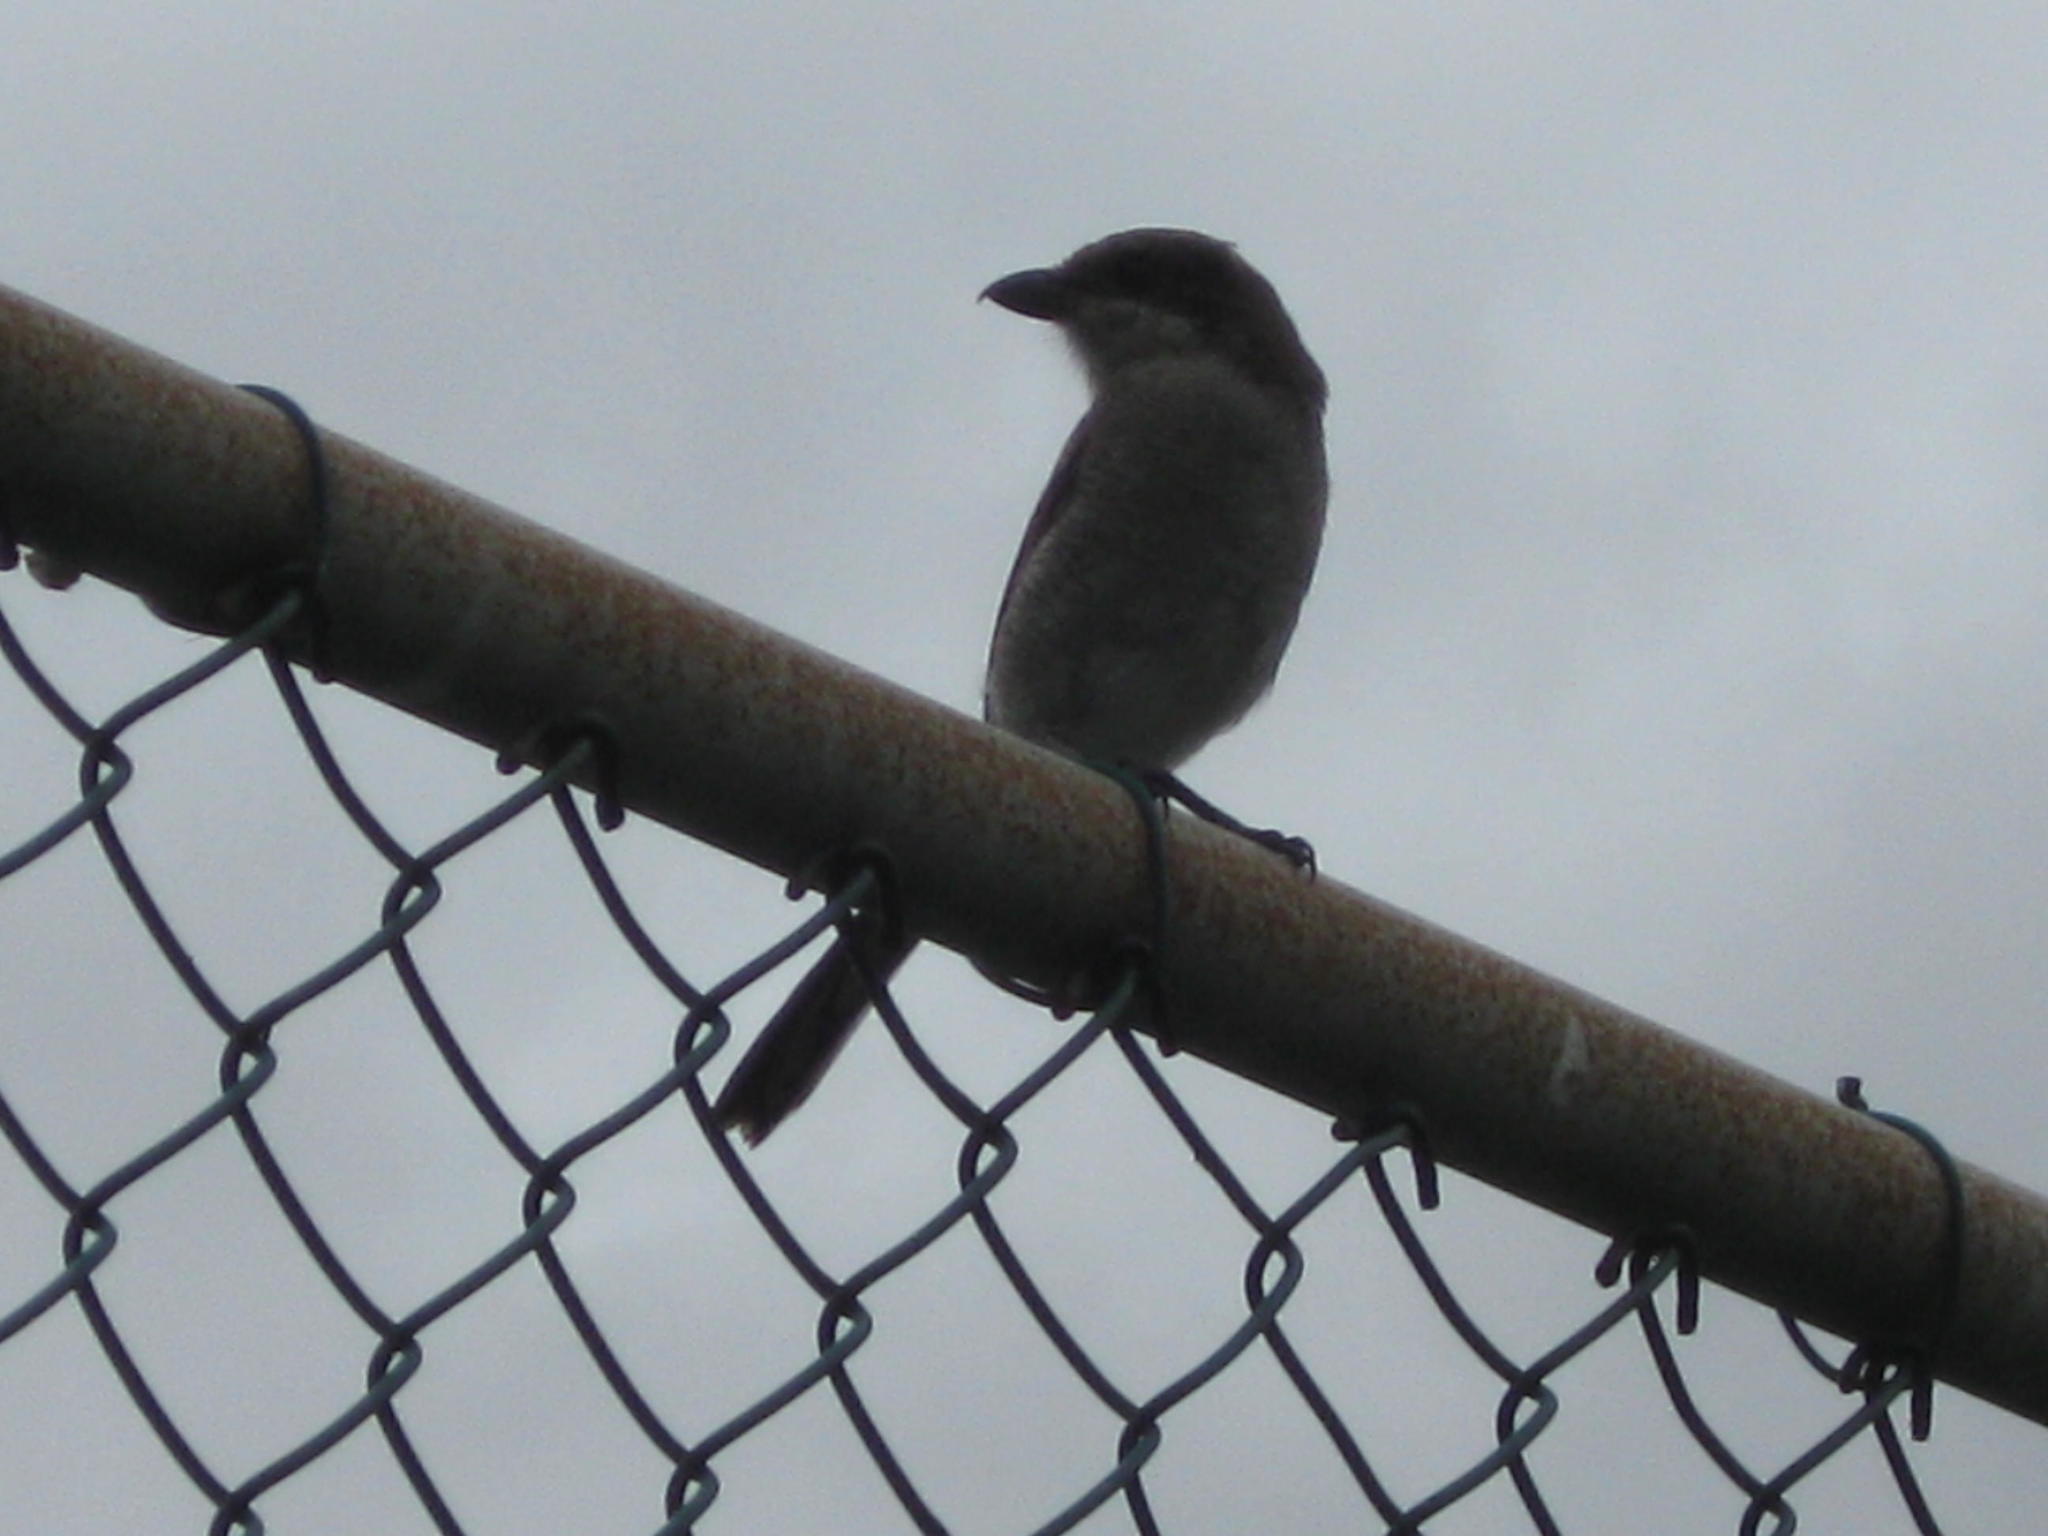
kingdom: Animalia
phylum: Chordata
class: Aves
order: Passeriformes
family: Laniidae
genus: Lanius
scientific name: Lanius collaris
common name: Southern fiscal
